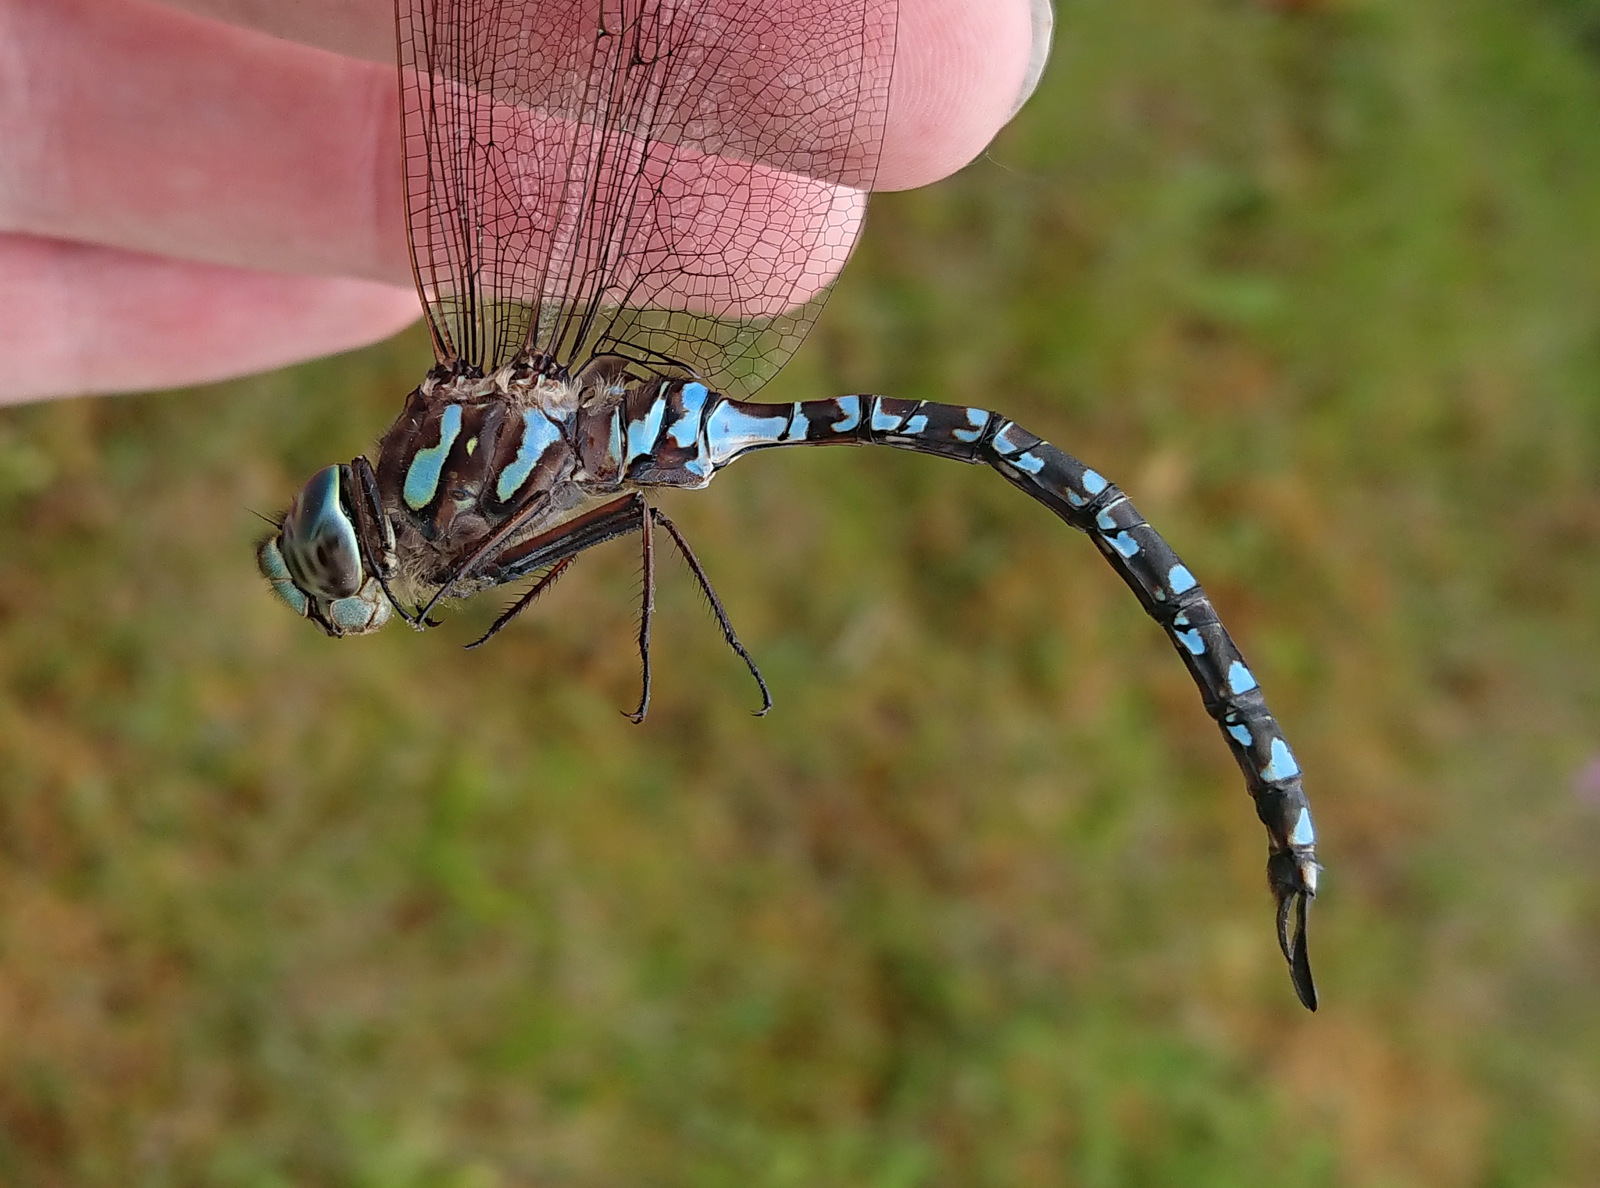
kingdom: Animalia
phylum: Arthropoda
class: Insecta
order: Odonata
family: Aeshnidae
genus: Aeshna
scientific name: Aeshna canadensis
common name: Canada darner
